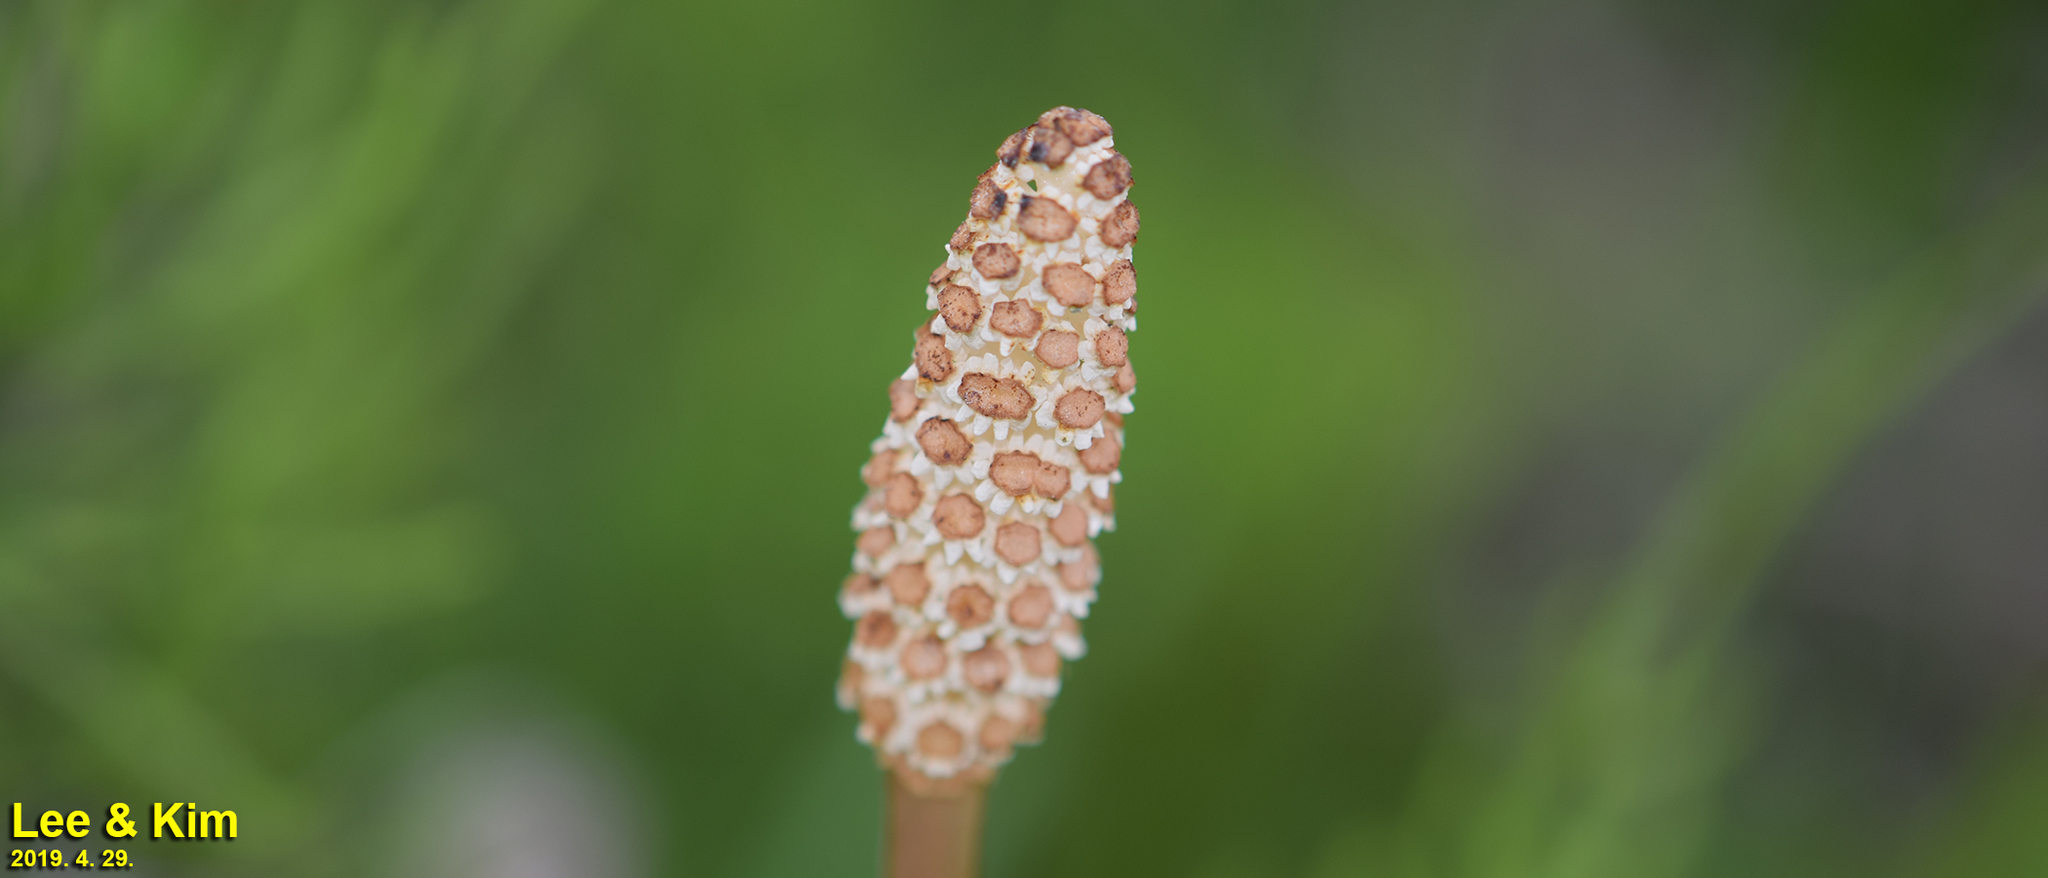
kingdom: Plantae
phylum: Tracheophyta
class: Polypodiopsida
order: Equisetales
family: Equisetaceae
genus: Equisetum
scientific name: Equisetum arvense
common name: Field horsetail
